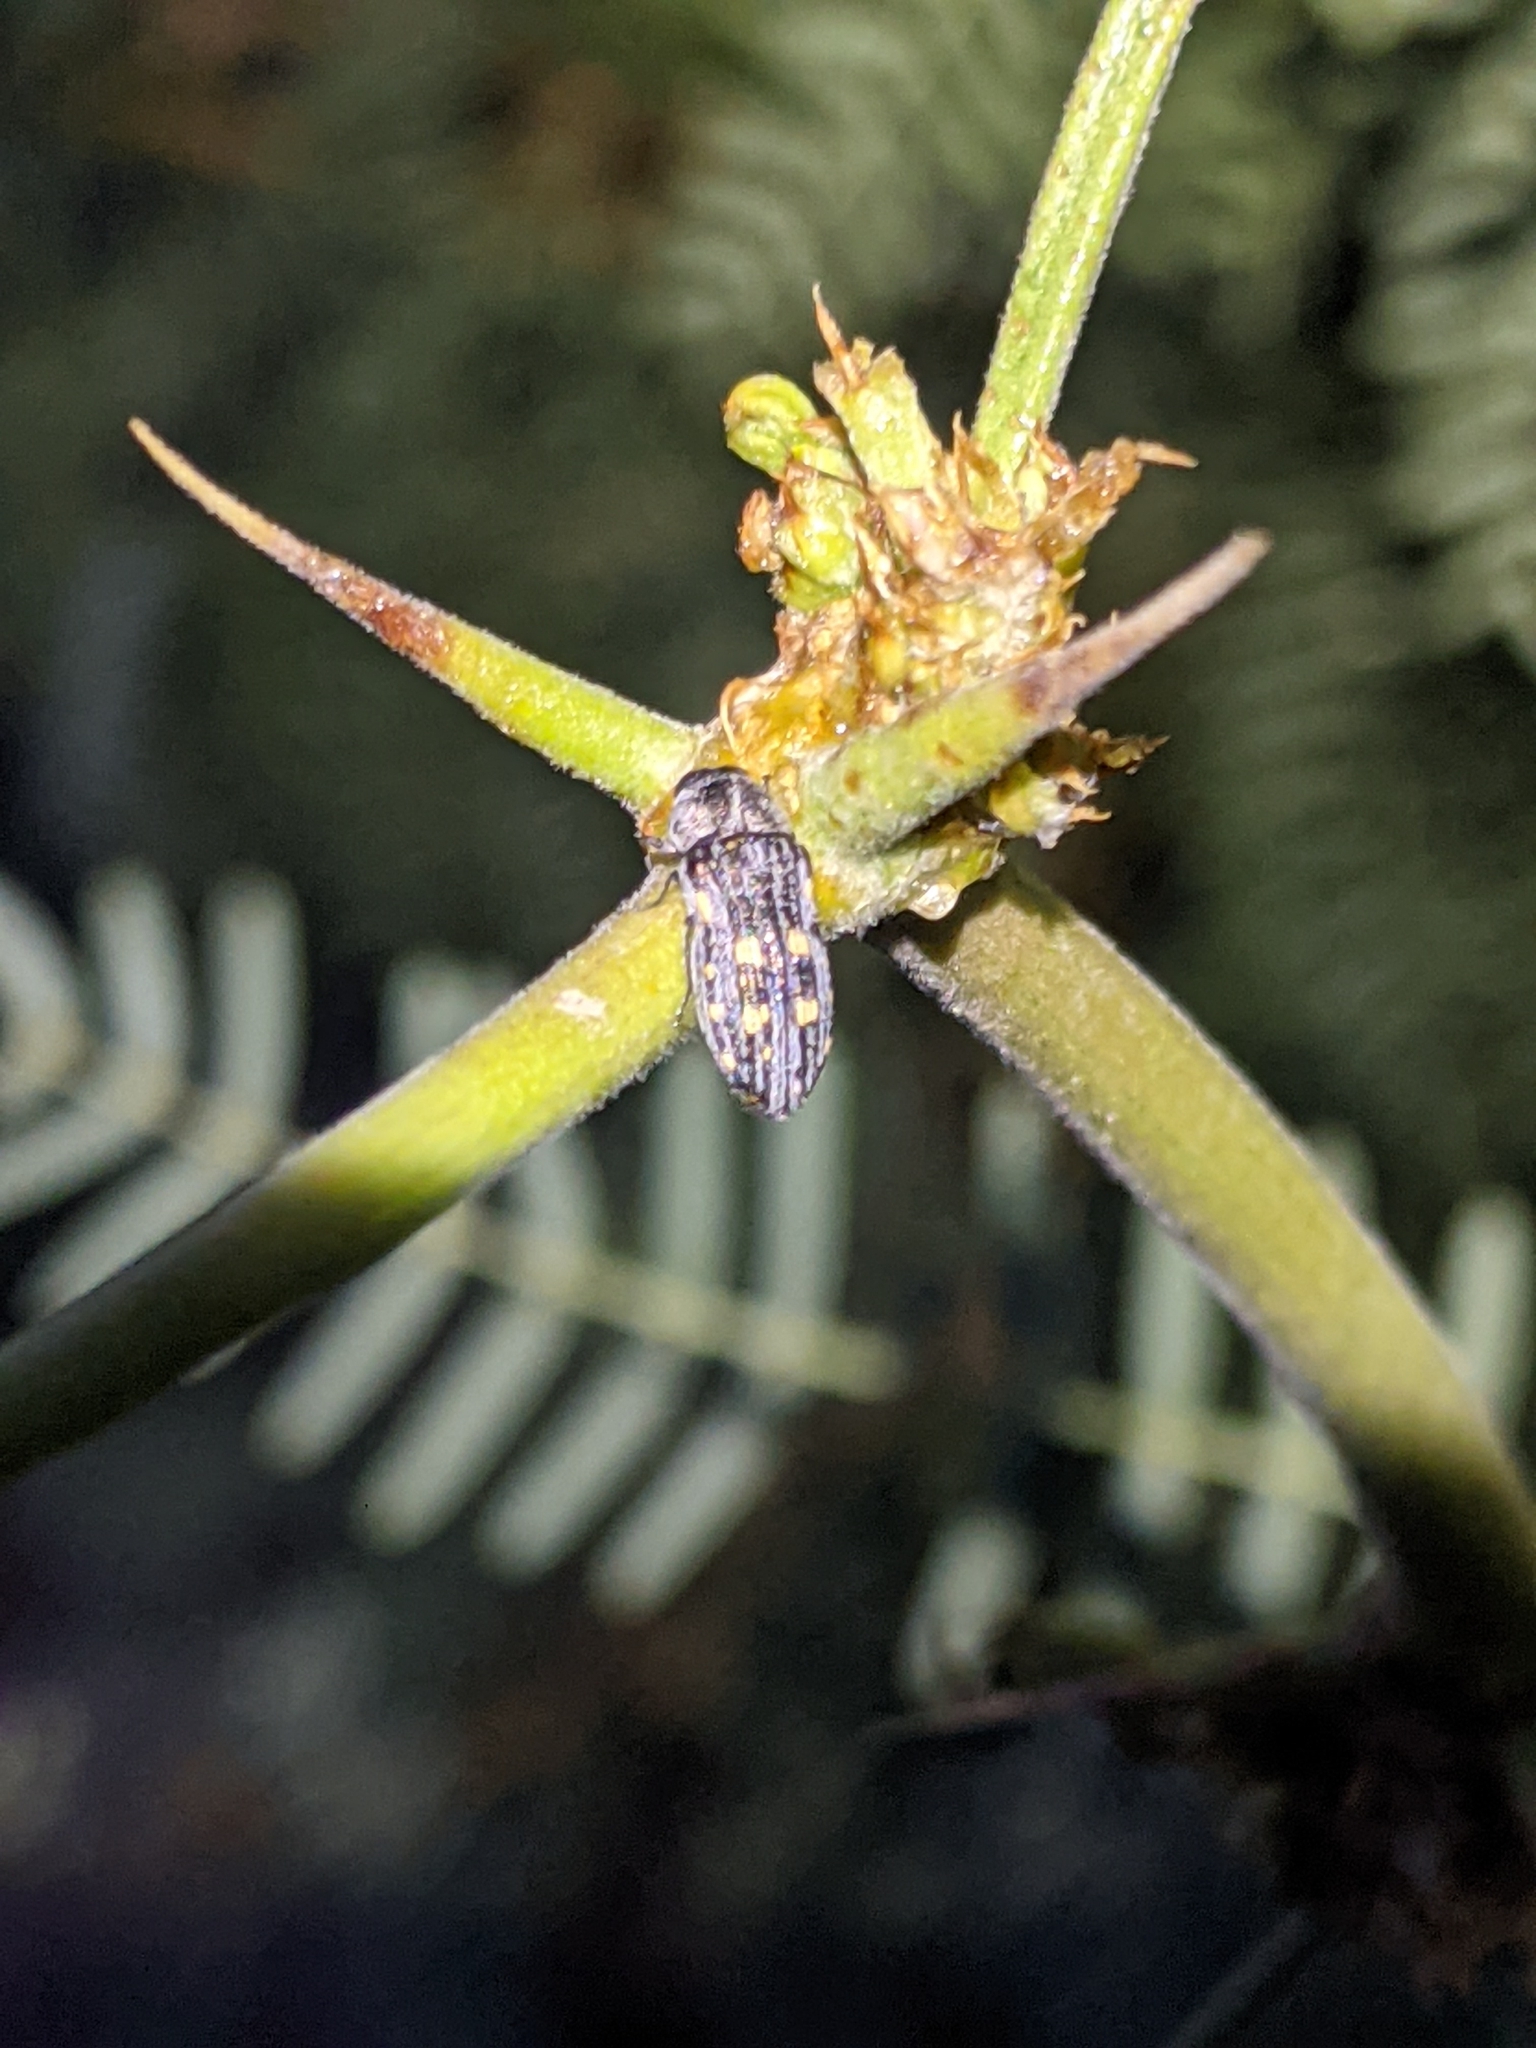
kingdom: Animalia
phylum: Arthropoda
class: Insecta
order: Coleoptera
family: Buprestidae
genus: Acmaeoderopsis
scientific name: Acmaeoderopsis junki
